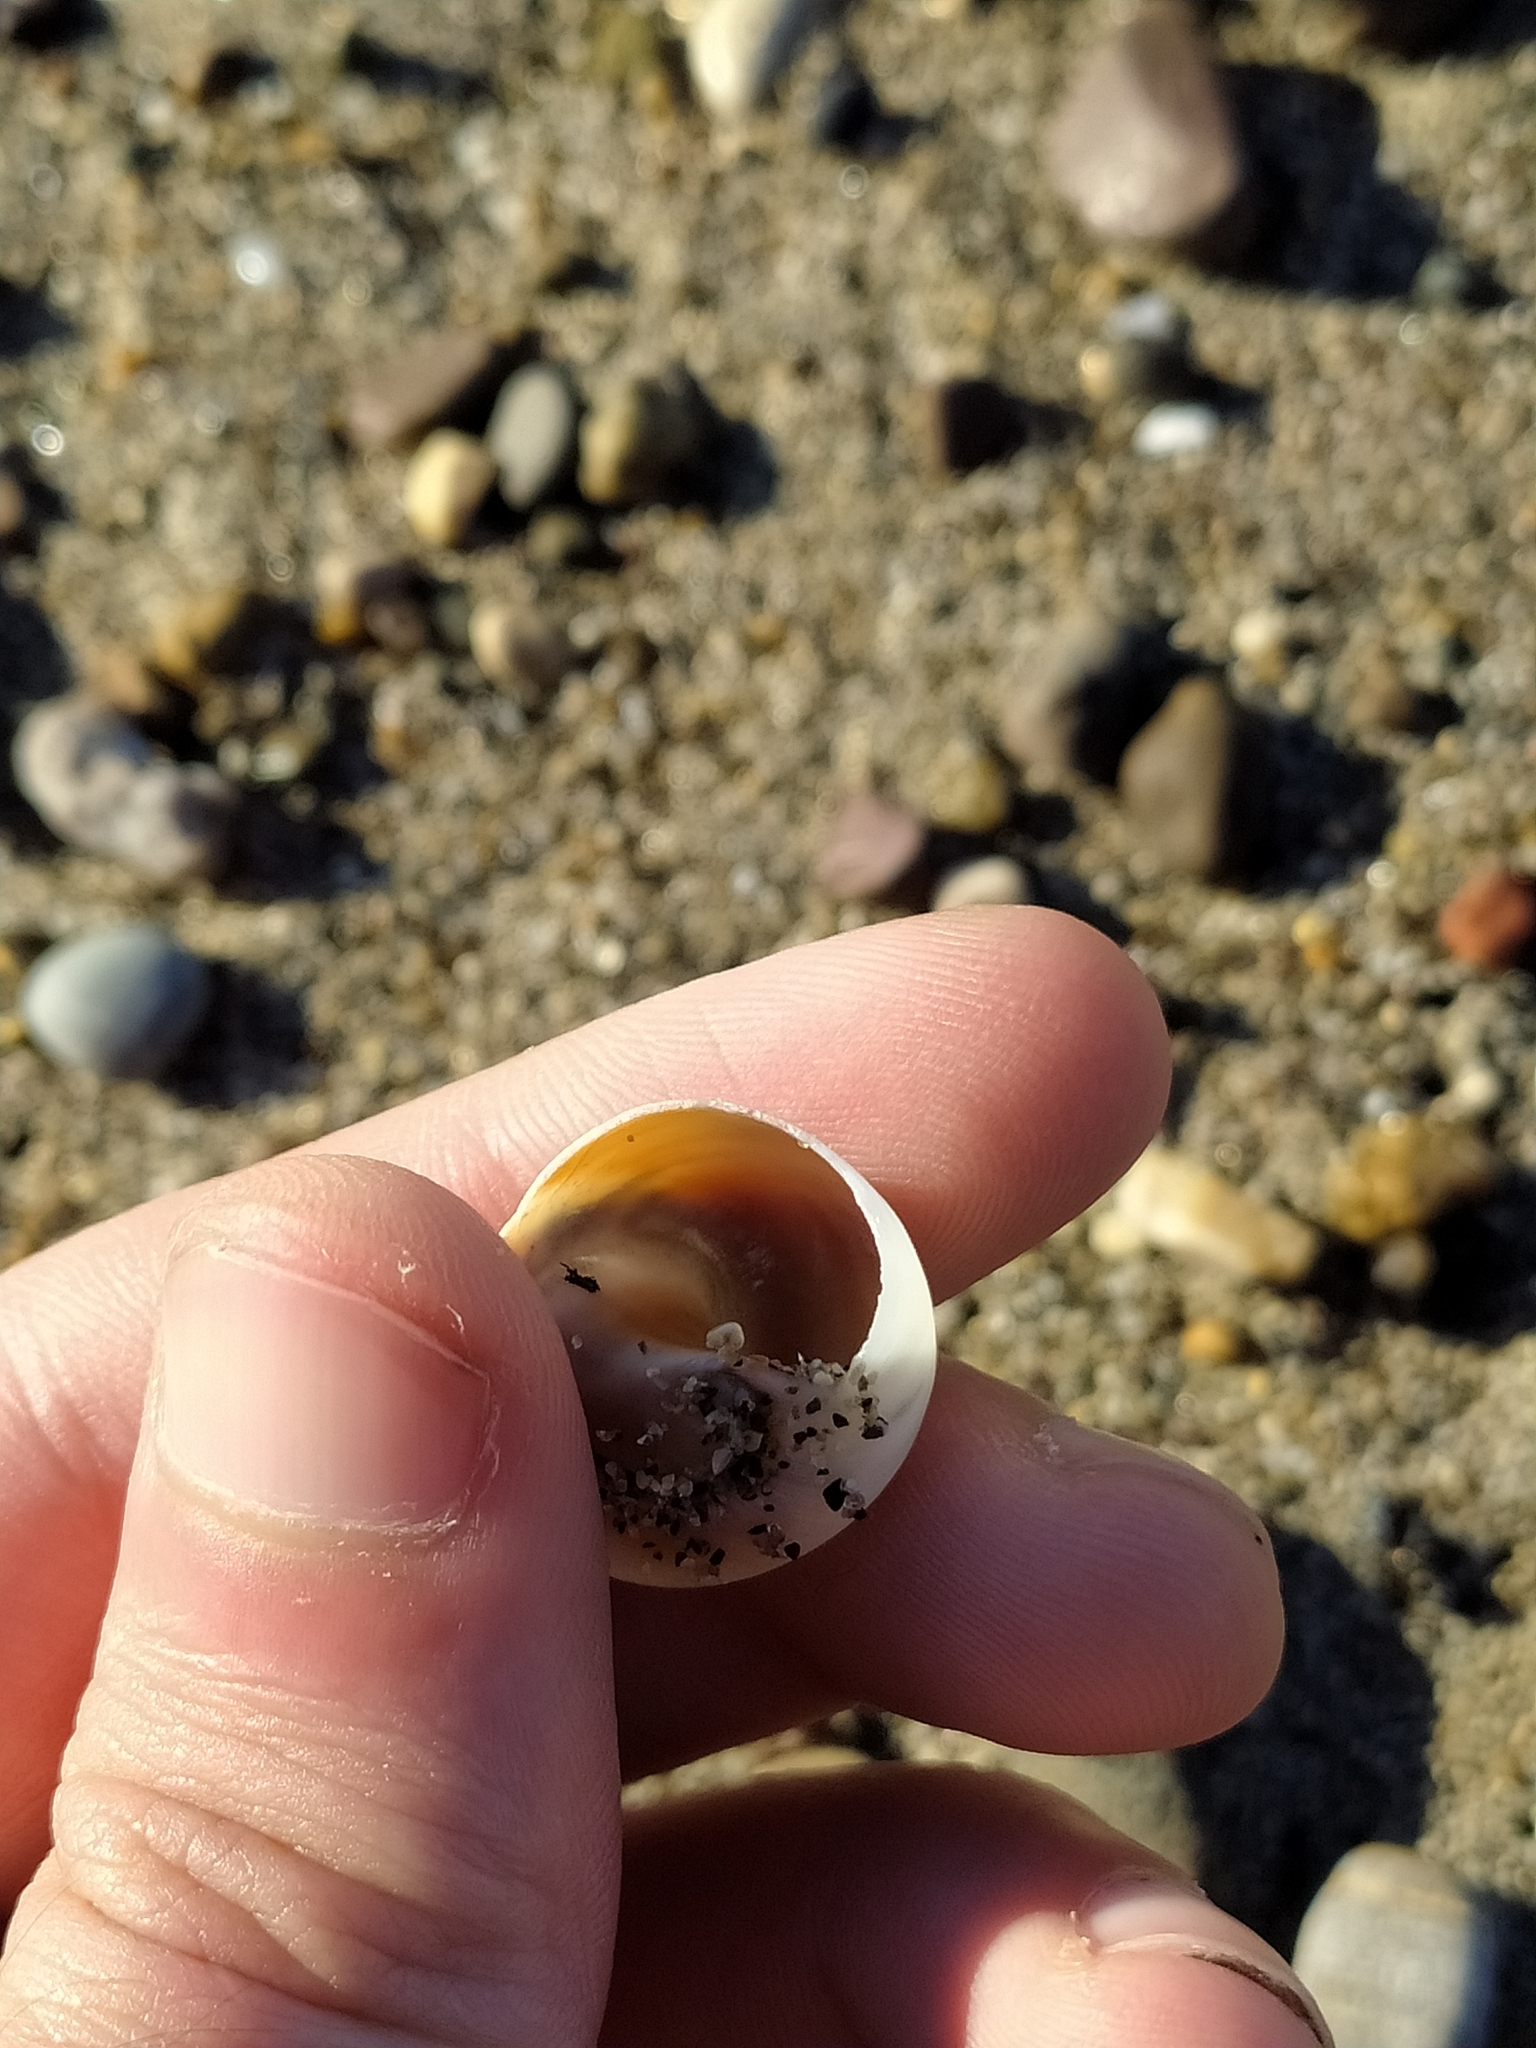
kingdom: Animalia
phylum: Mollusca
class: Gastropoda
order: Littorinimorpha
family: Naticidae
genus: Neverita
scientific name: Neverita josephinia
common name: Josephine's moonsnail
